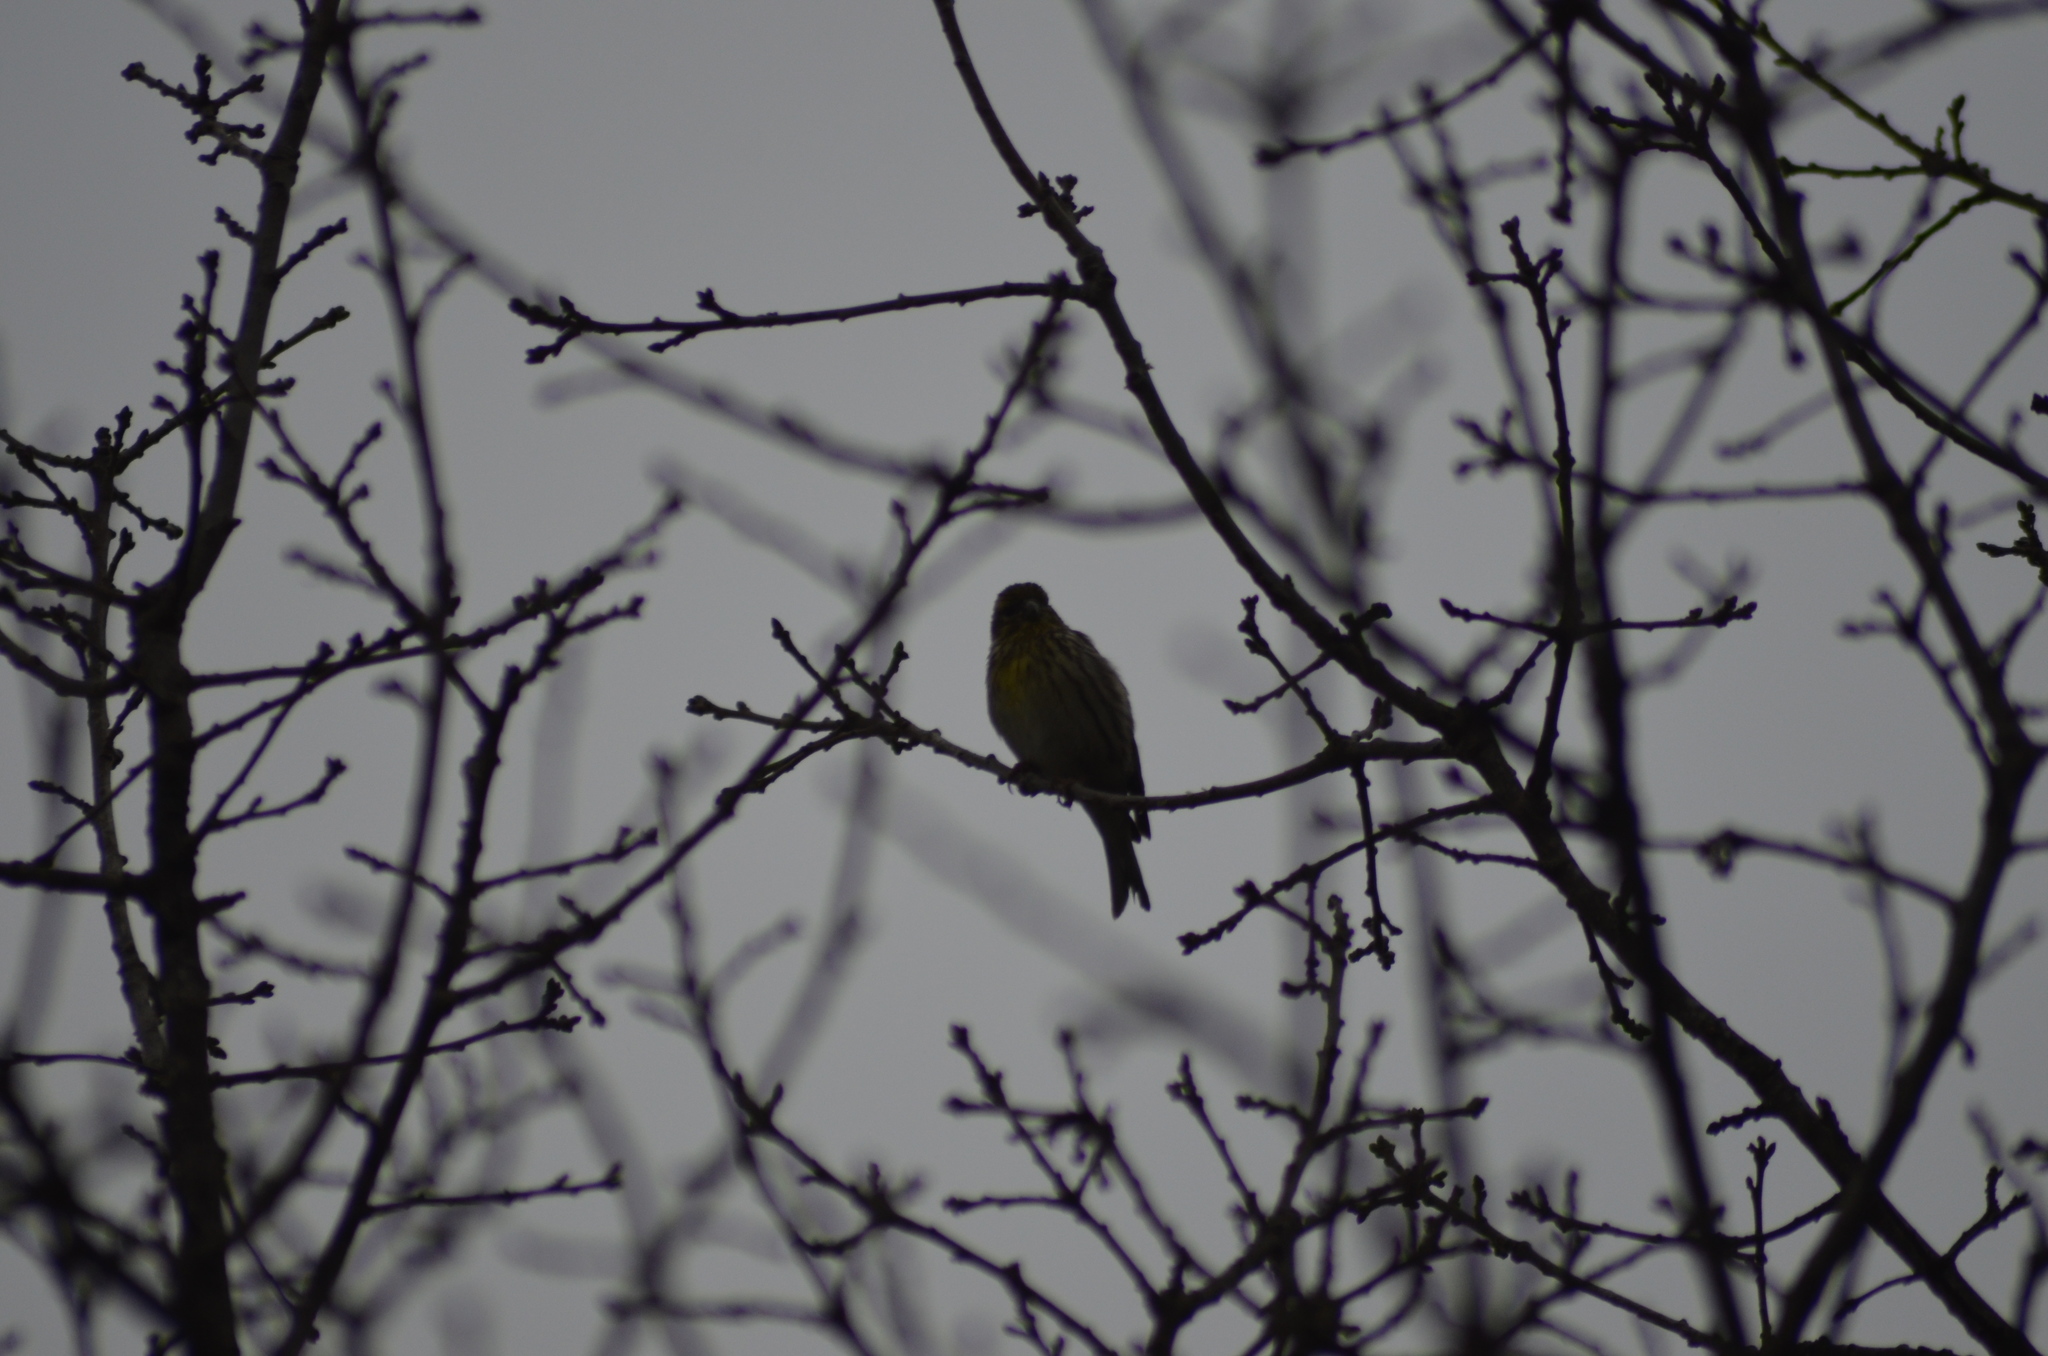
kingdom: Animalia
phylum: Chordata
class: Aves
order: Passeriformes
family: Fringillidae
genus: Serinus
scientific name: Serinus serinus
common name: European serin
